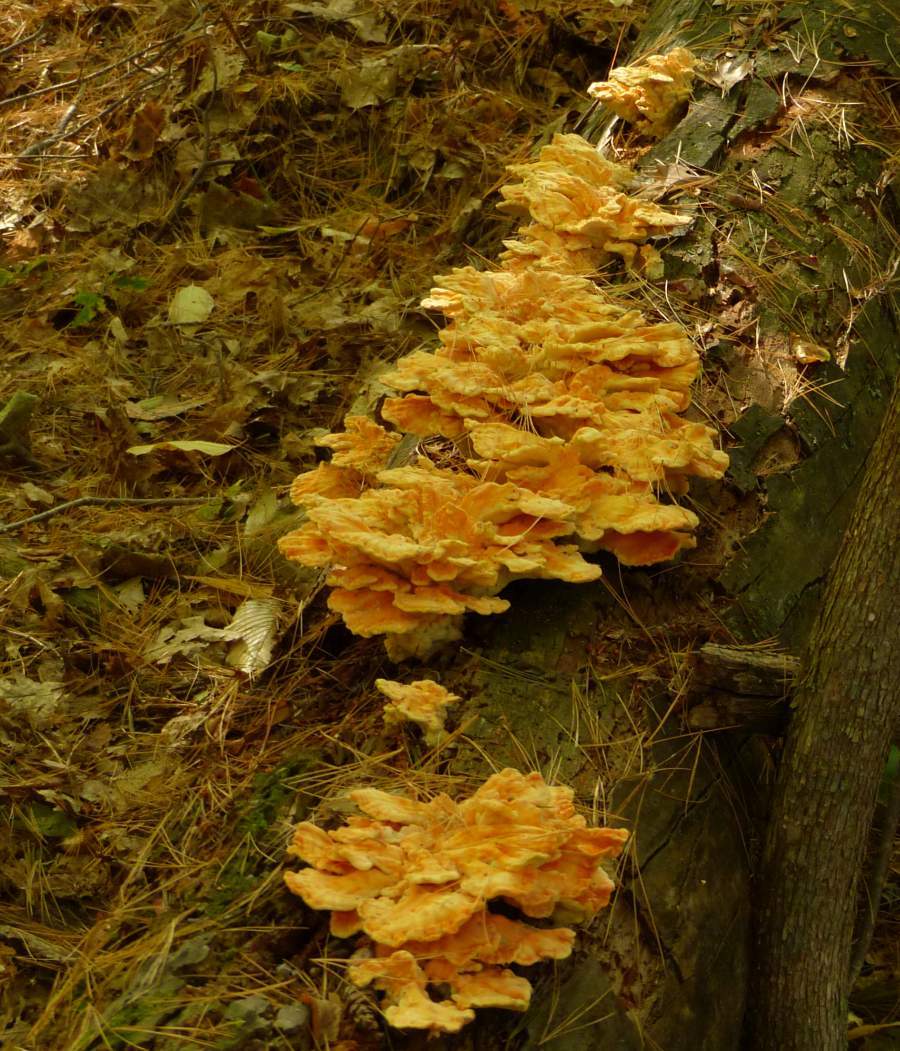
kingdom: Fungi
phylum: Basidiomycota
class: Agaricomycetes
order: Polyporales
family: Laetiporaceae
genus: Laetiporus
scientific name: Laetiporus sulphureus
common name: Chicken of the woods
